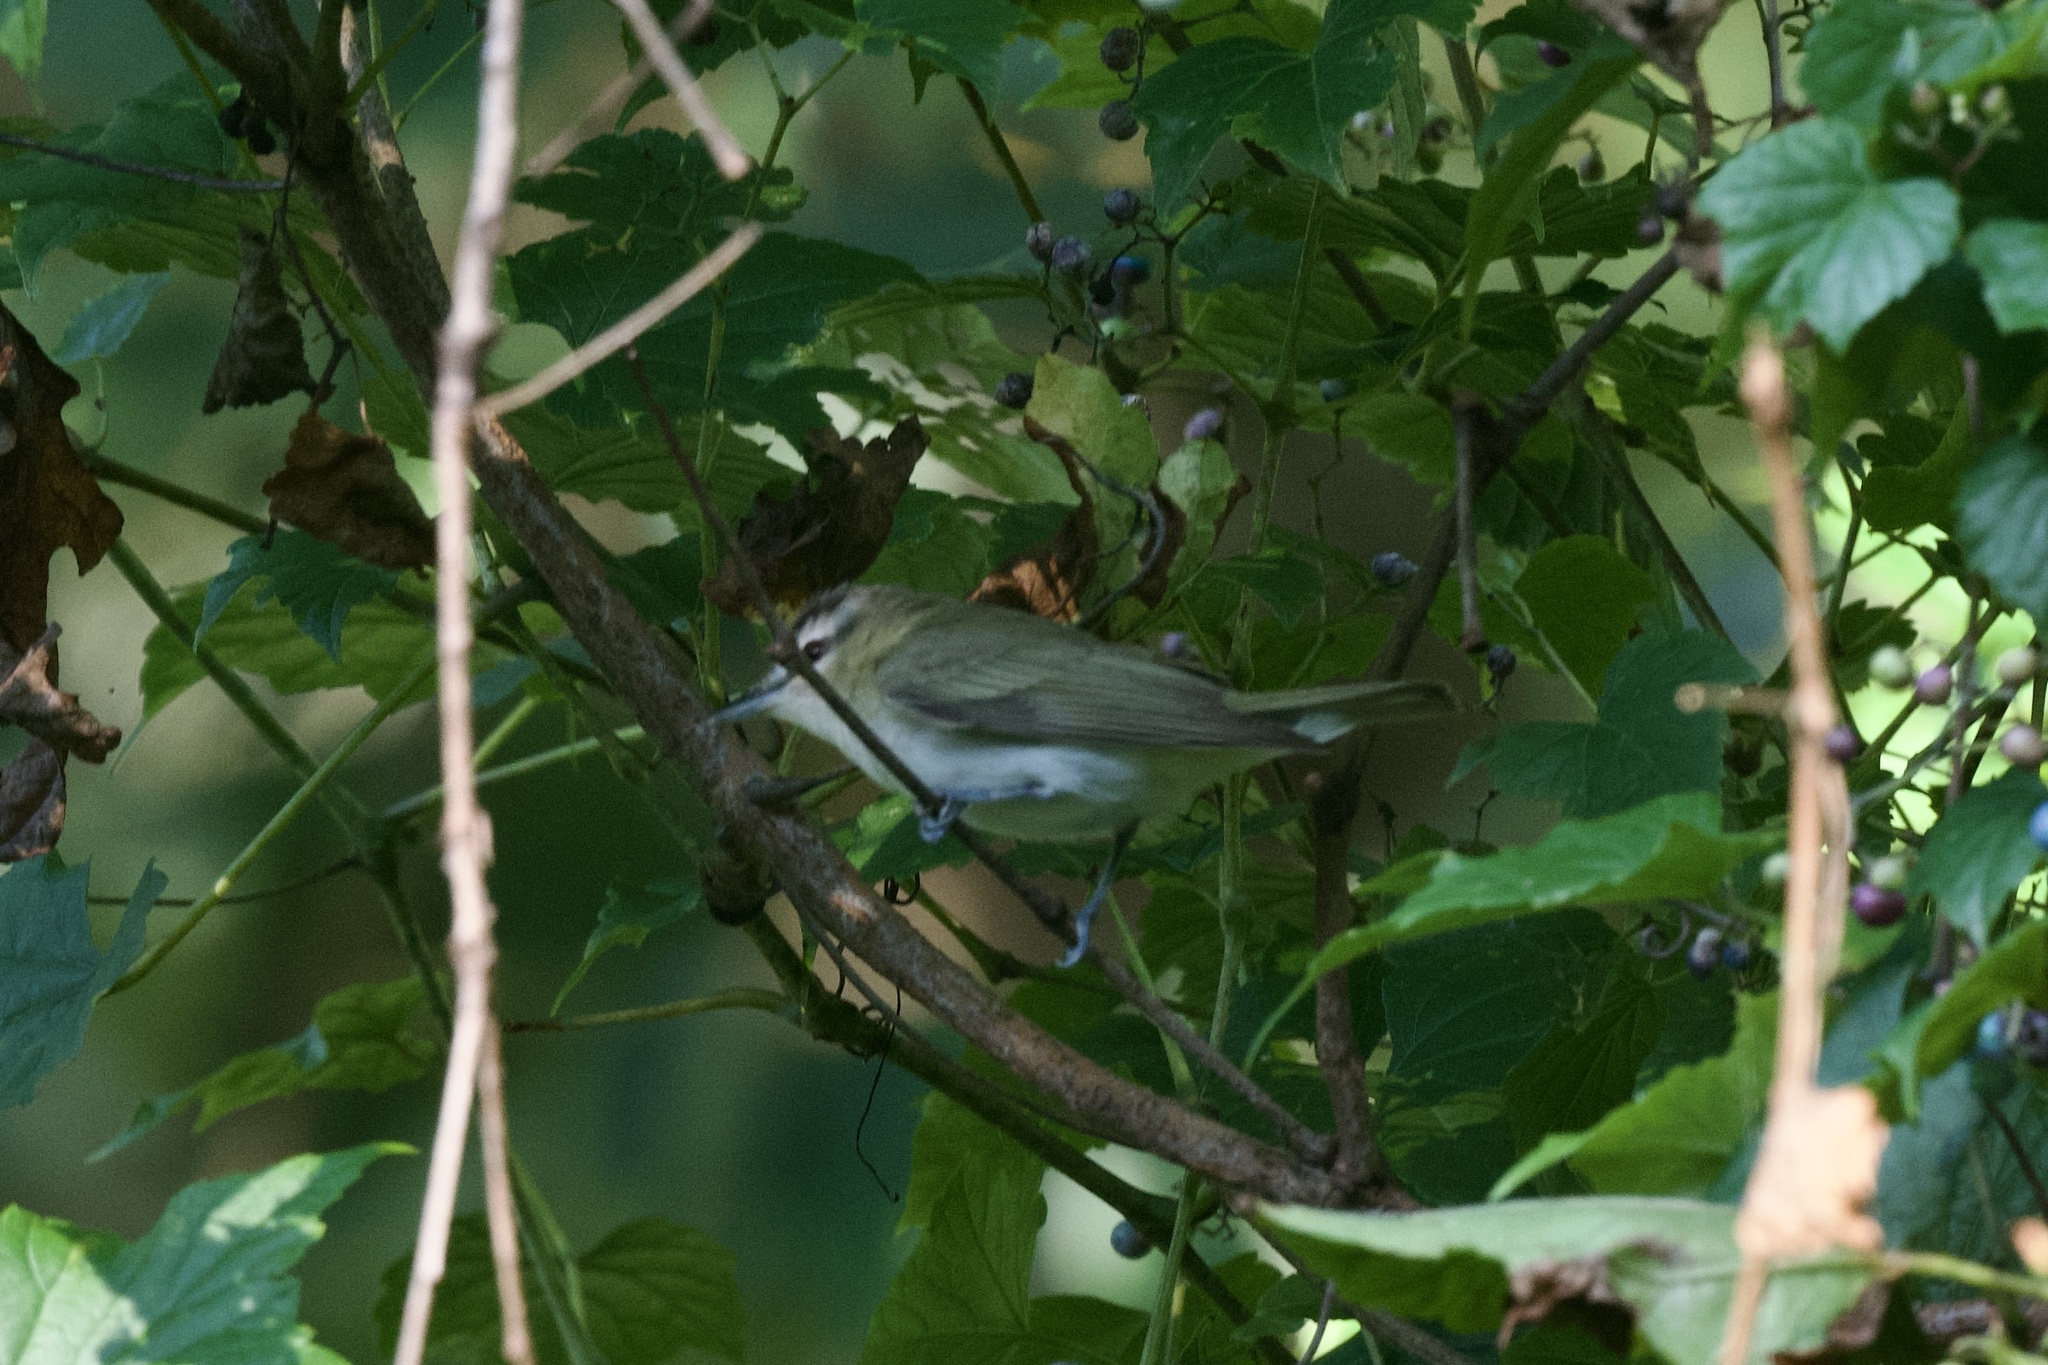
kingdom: Animalia
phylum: Chordata
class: Aves
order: Passeriformes
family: Vireonidae
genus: Vireo
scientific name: Vireo olivaceus
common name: Red-eyed vireo
